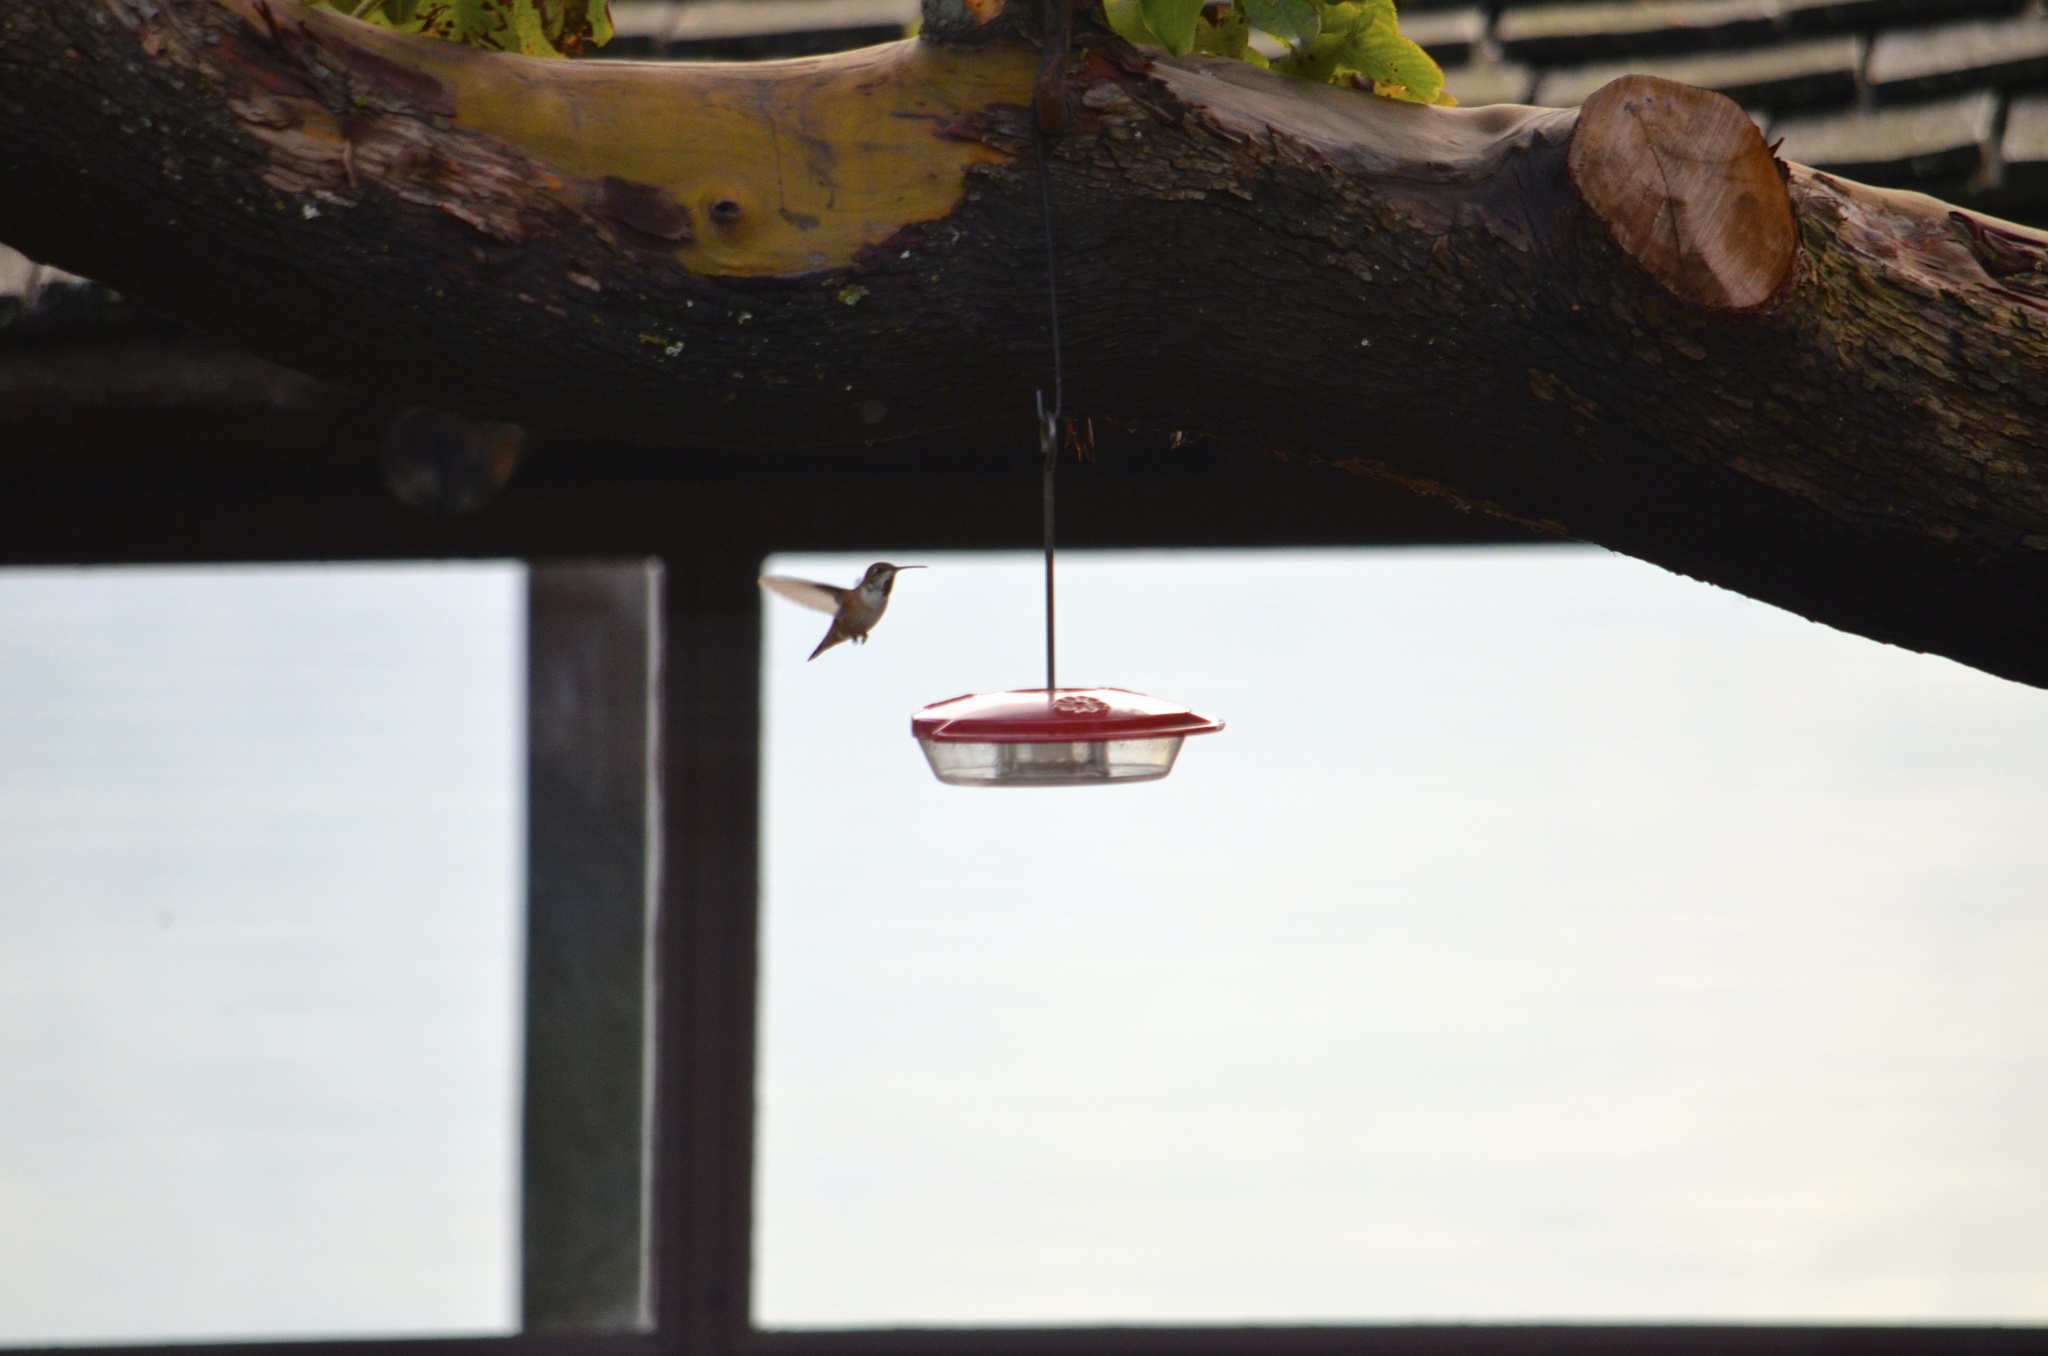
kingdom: Animalia
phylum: Chordata
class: Aves
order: Apodiformes
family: Trochilidae
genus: Selasphorus
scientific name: Selasphorus rufus
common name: Rufous hummingbird
